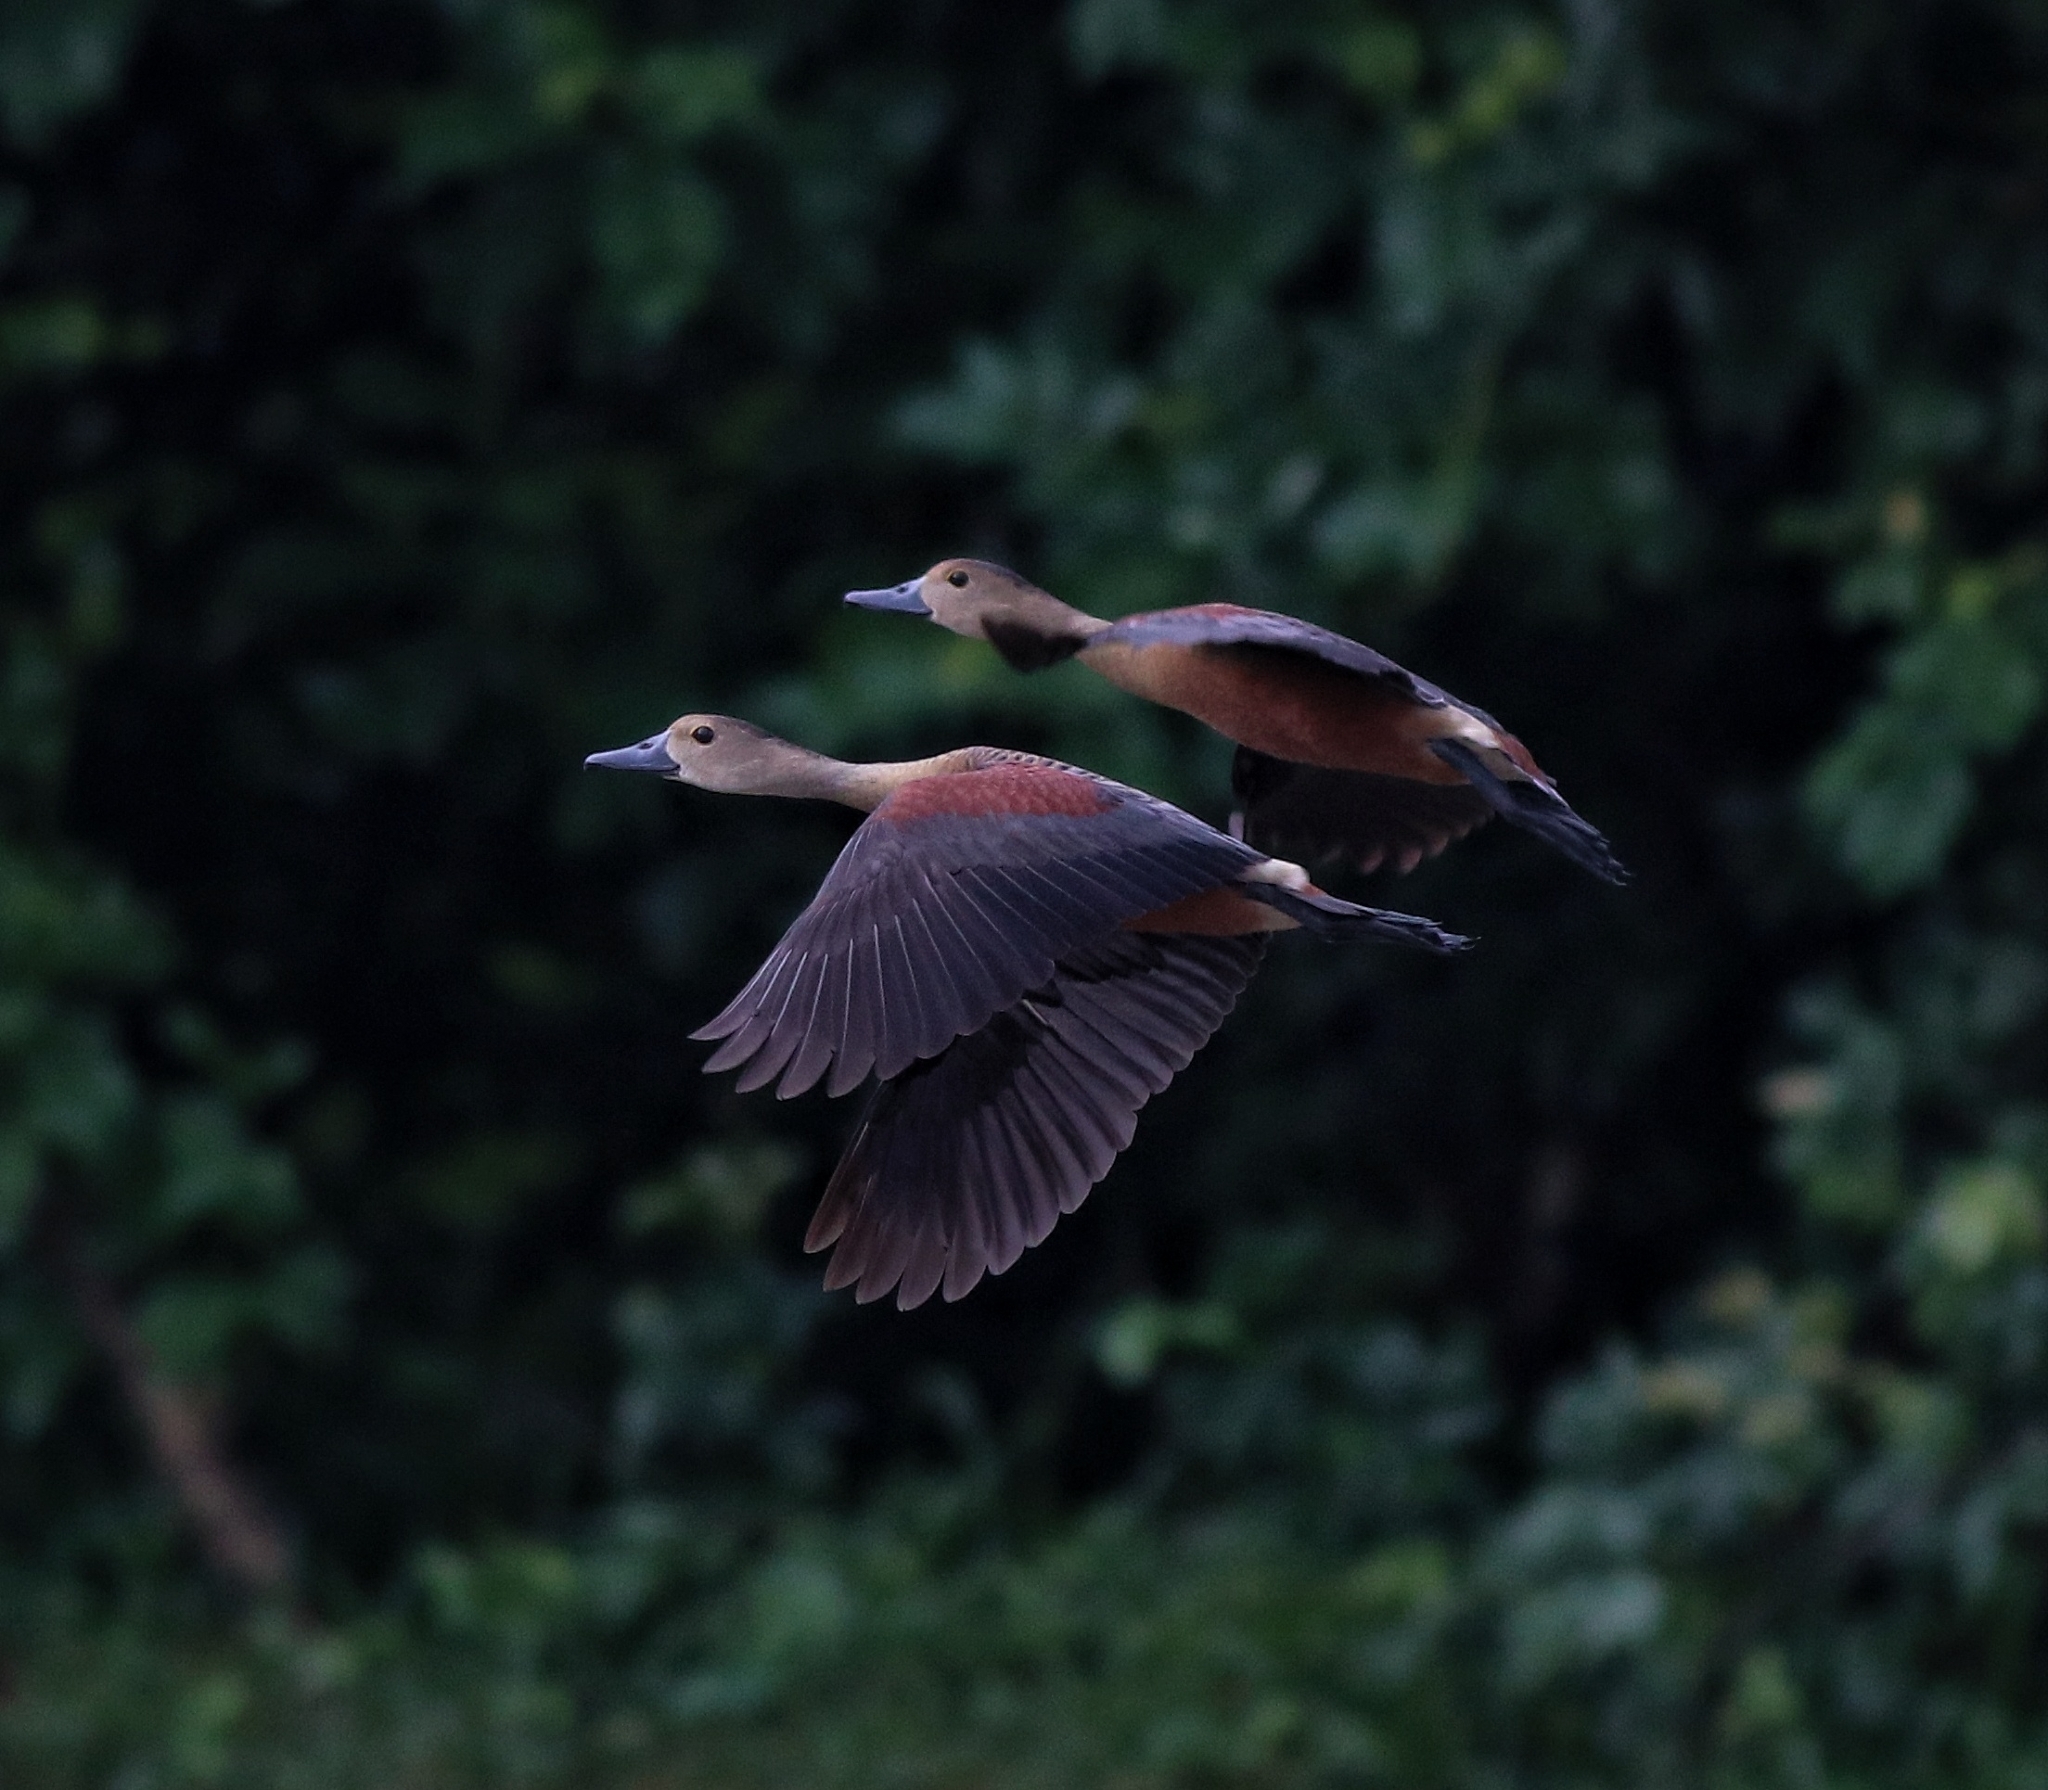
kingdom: Animalia
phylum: Chordata
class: Aves
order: Anseriformes
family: Anatidae
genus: Dendrocygna
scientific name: Dendrocygna javanica
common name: Lesser whistling-duck
